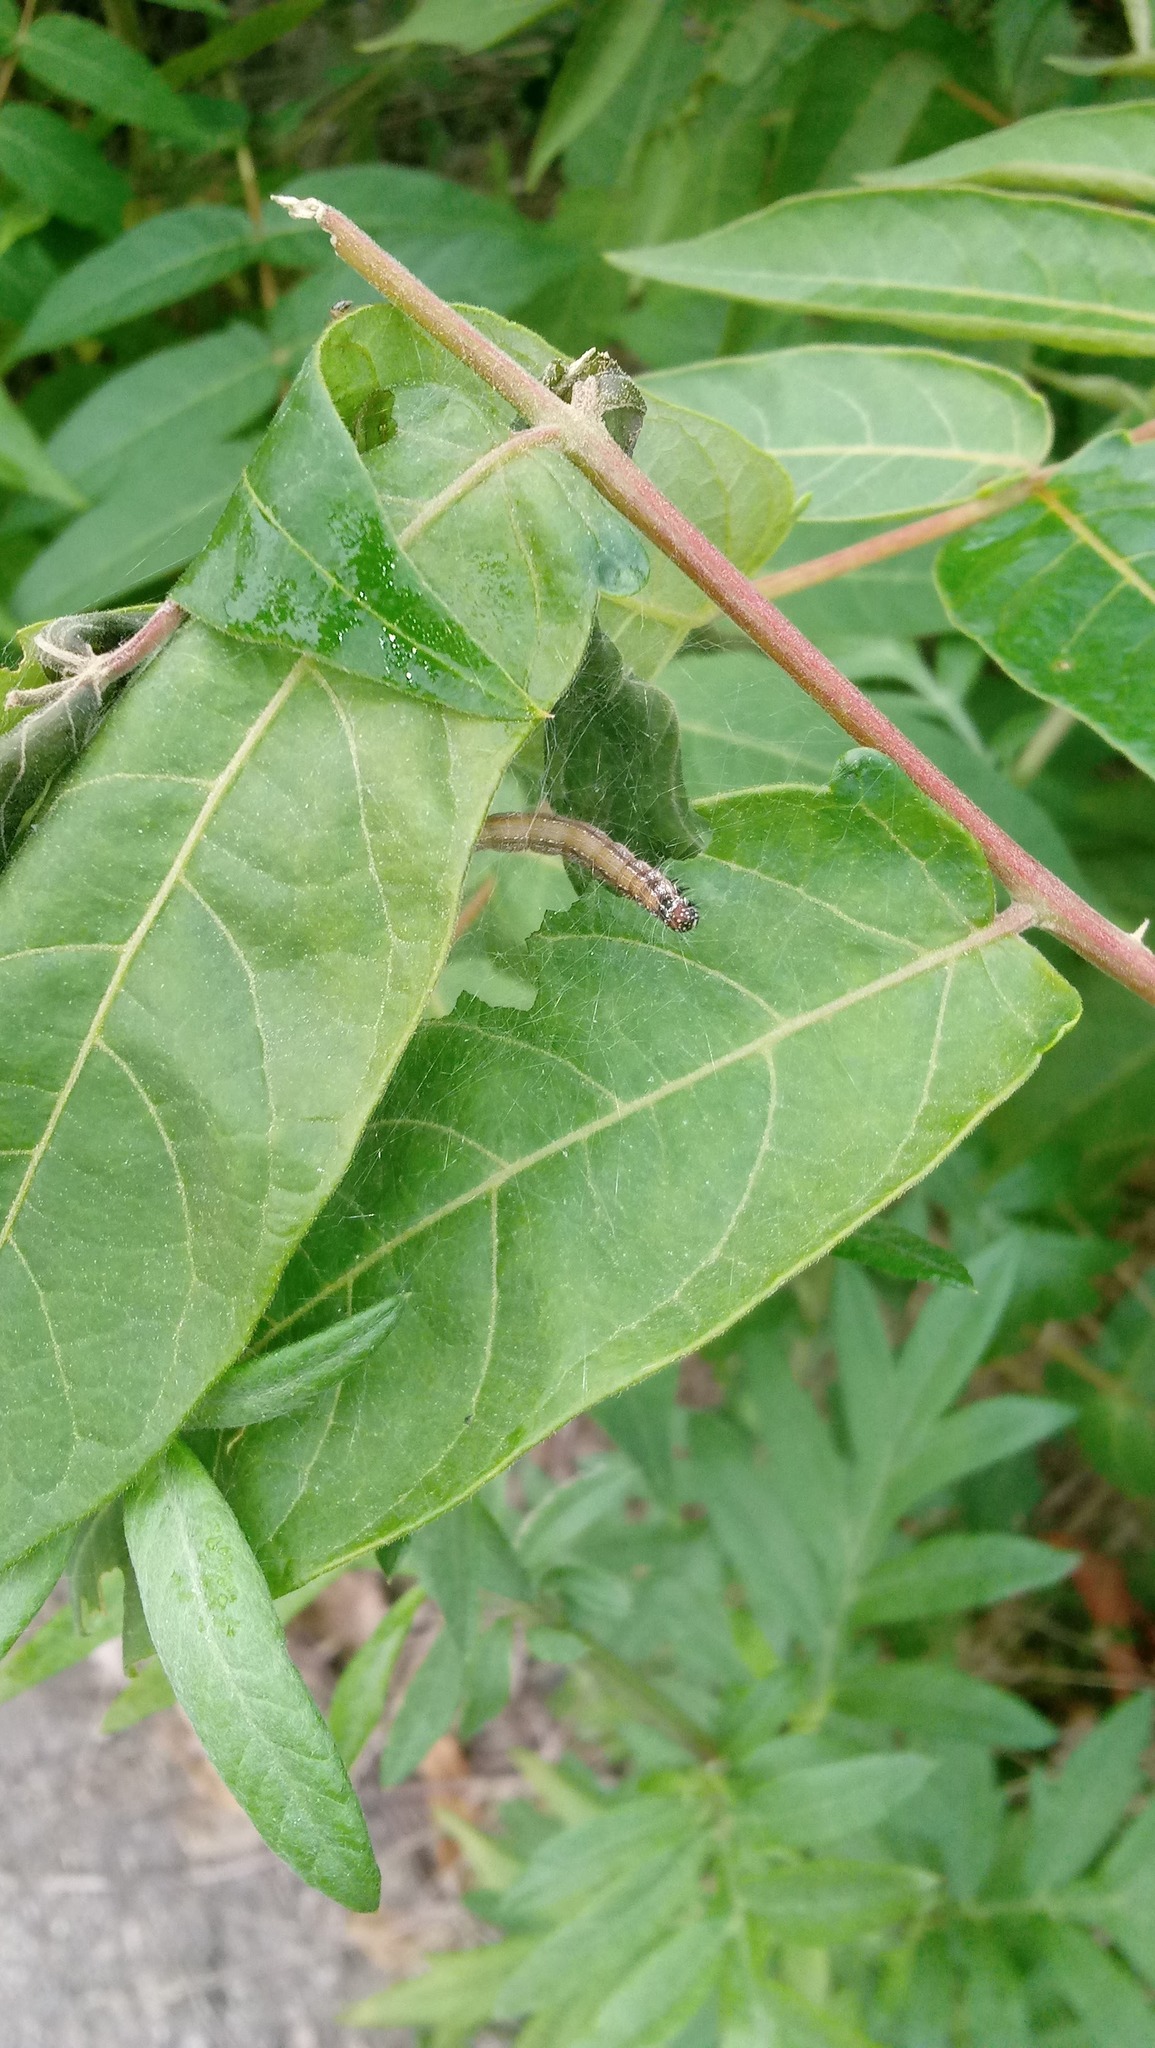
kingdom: Animalia
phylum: Arthropoda
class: Insecta
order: Lepidoptera
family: Attevidae
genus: Atteva
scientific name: Atteva punctella
